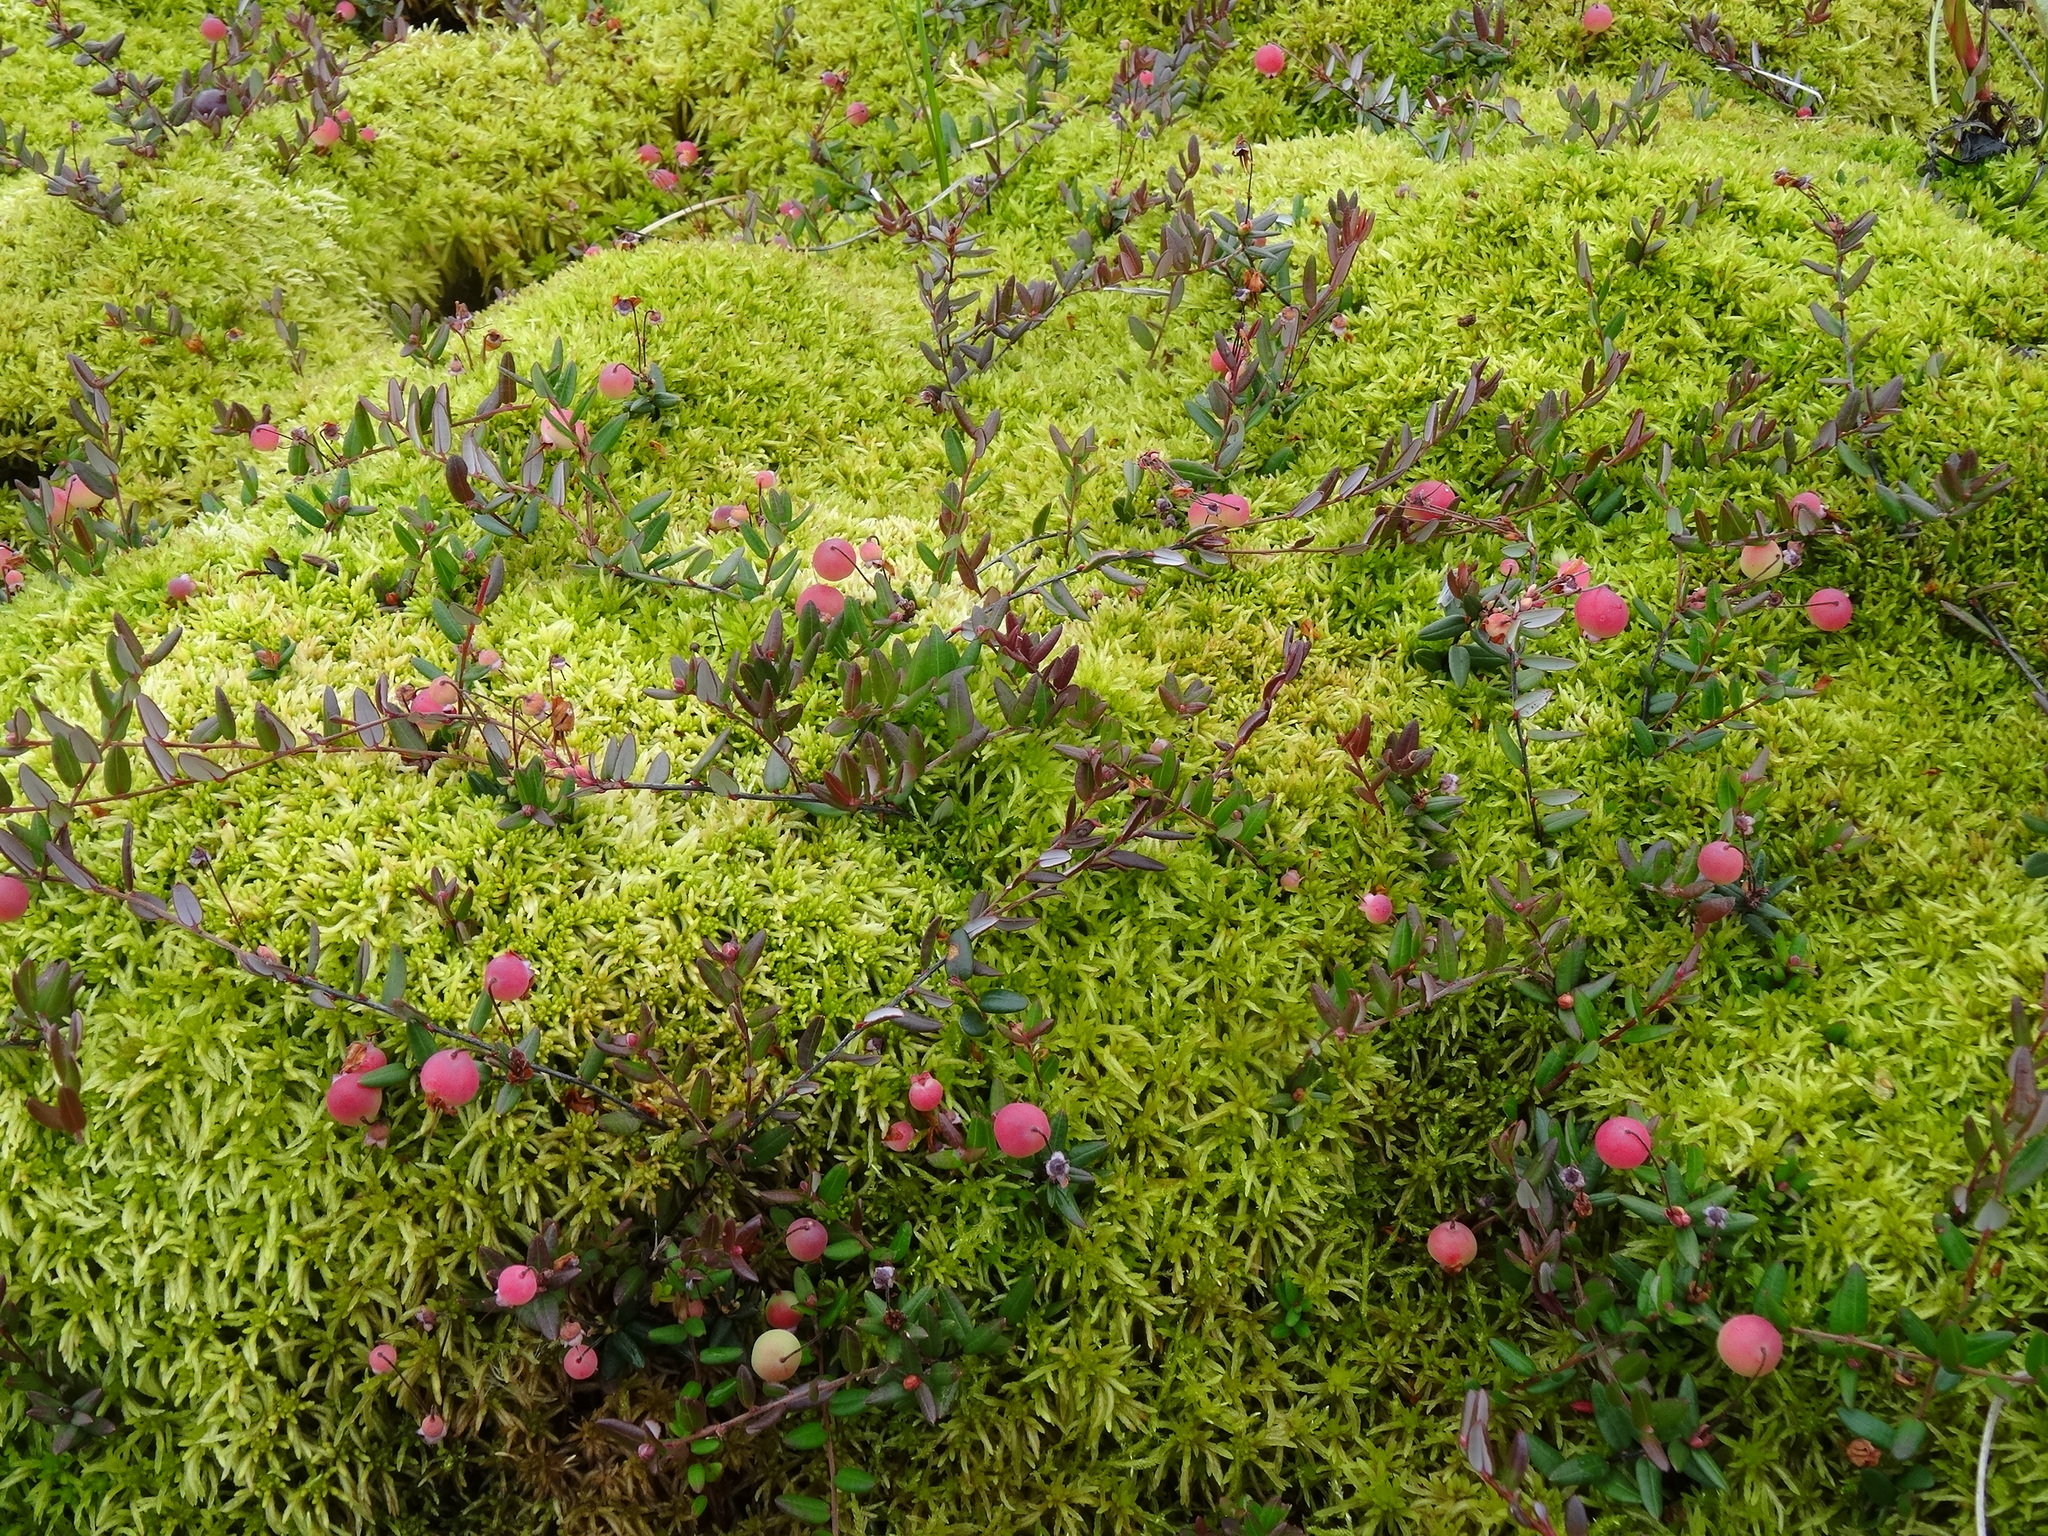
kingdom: Plantae
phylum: Tracheophyta
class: Magnoliopsida
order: Ericales
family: Ericaceae
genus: Vaccinium
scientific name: Vaccinium oxycoccos
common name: Cranberry
